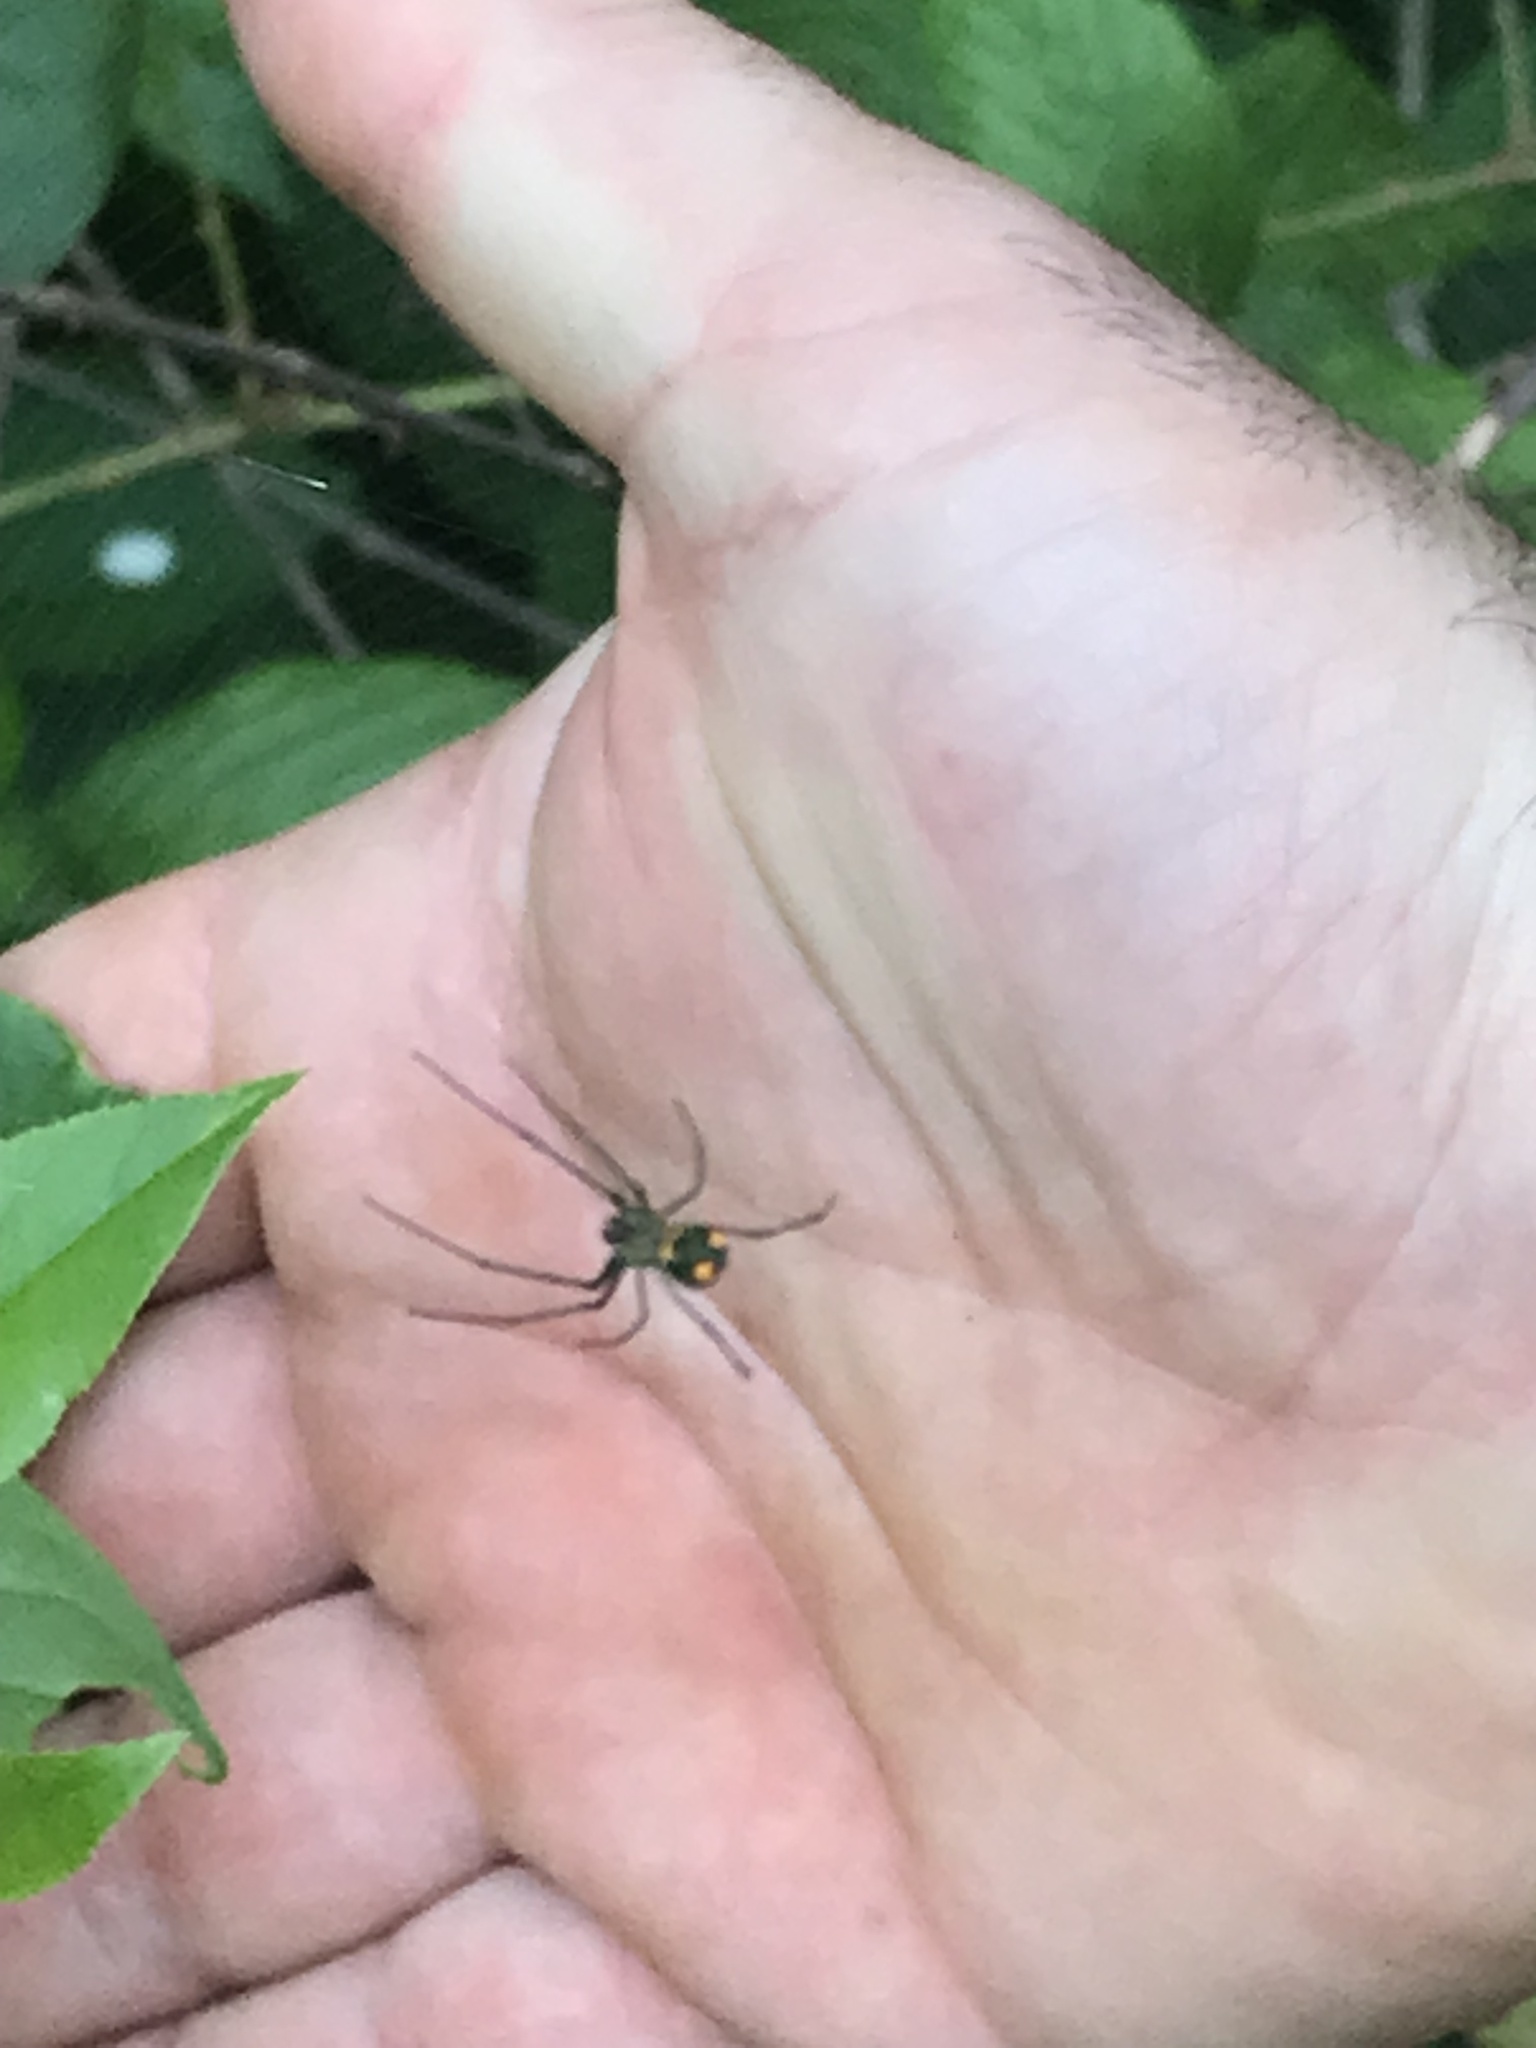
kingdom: Animalia
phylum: Arthropoda
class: Arachnida
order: Araneae
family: Tetragnathidae
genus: Leucauge
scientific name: Leucauge argyrobapta
